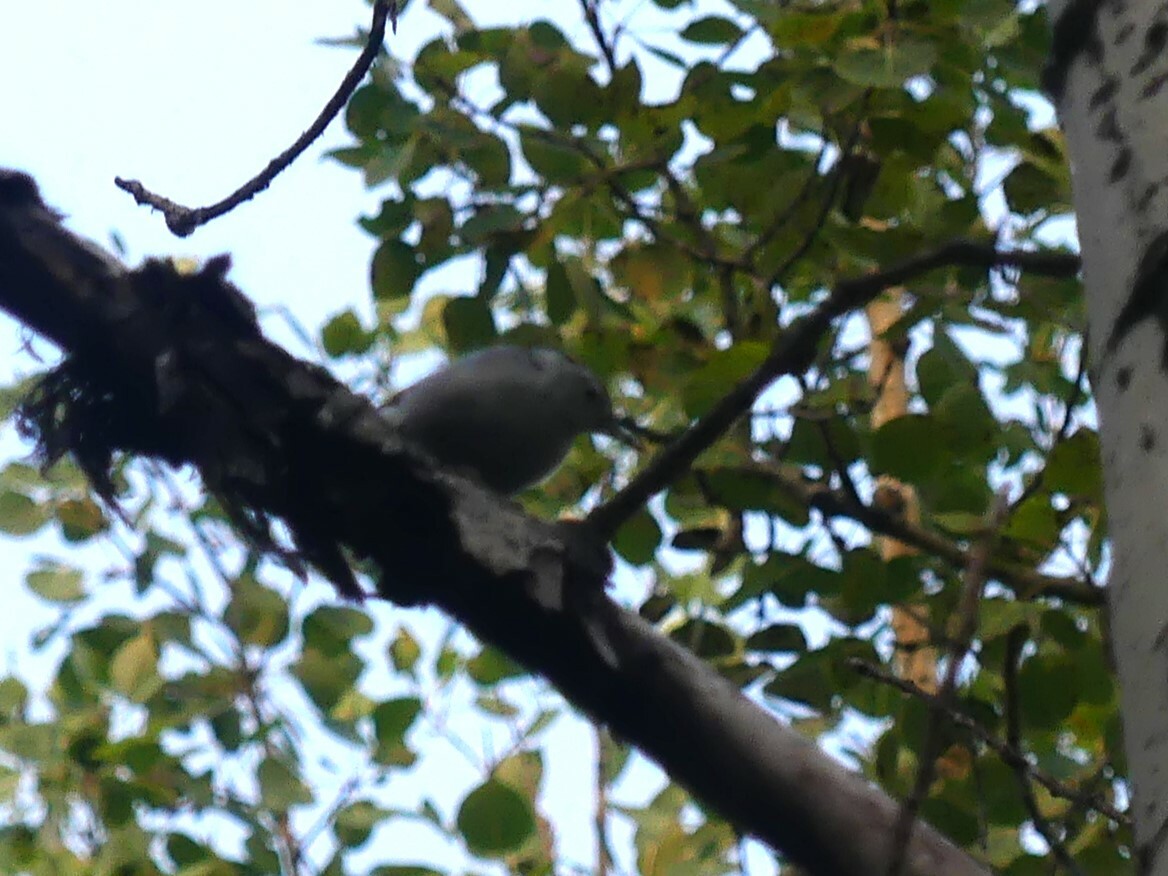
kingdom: Animalia
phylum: Chordata
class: Aves
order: Passeriformes
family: Sittidae
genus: Sitta
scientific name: Sitta carolinensis
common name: White-breasted nuthatch
